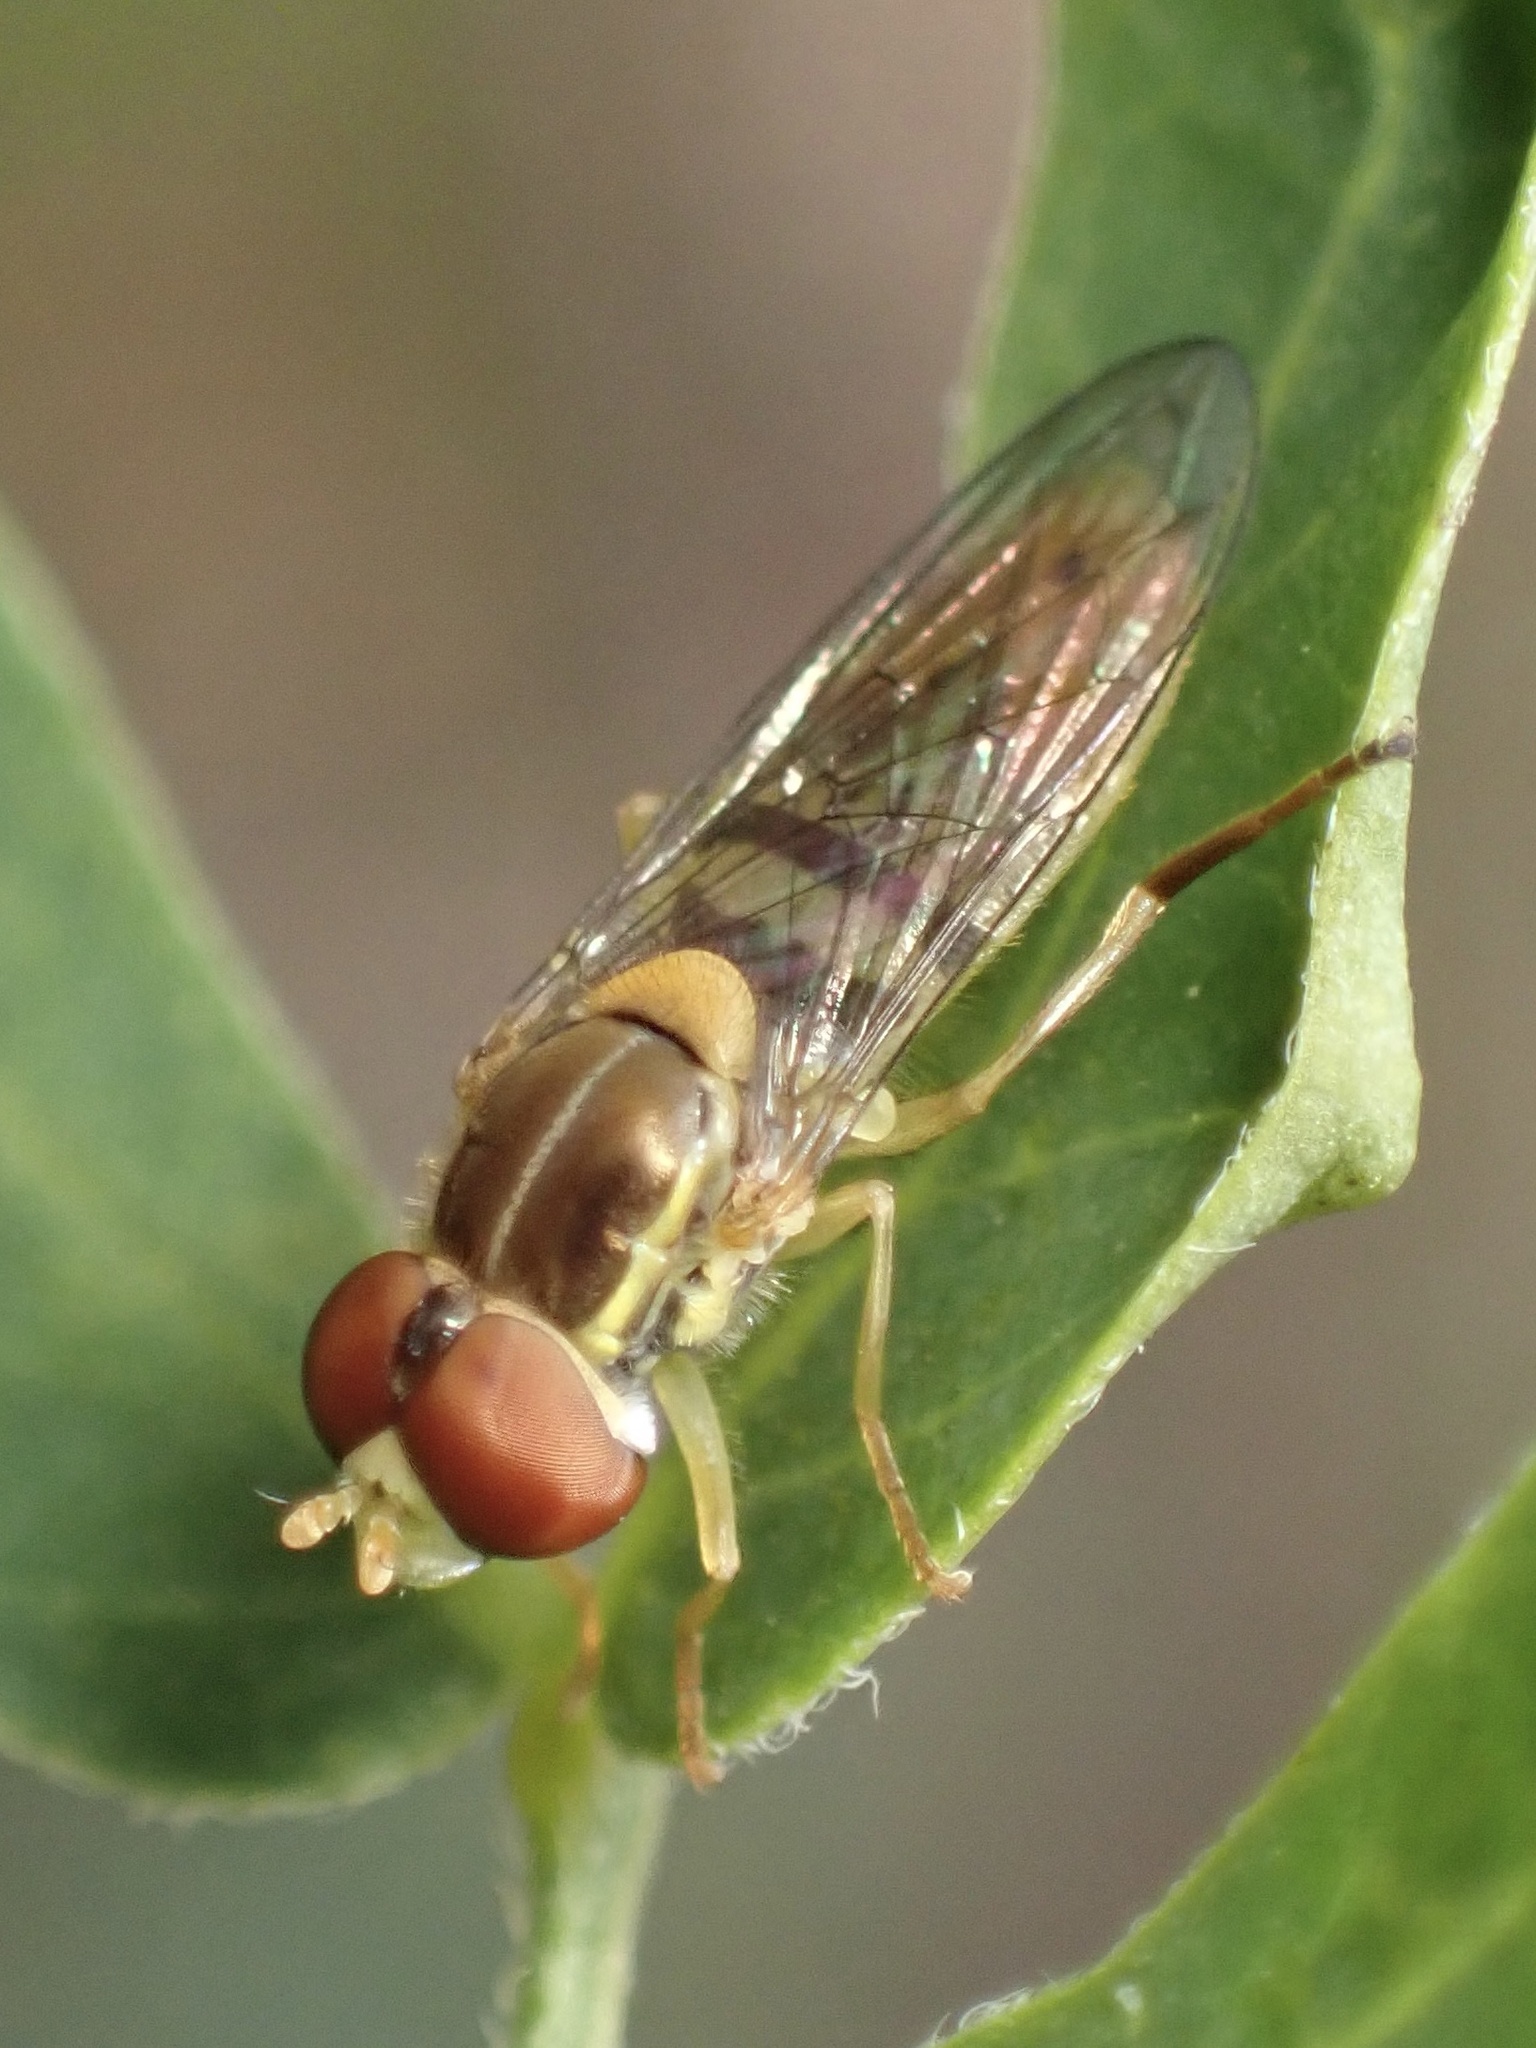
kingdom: Animalia
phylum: Arthropoda
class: Insecta
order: Diptera
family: Syrphidae
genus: Toxomerus
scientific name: Toxomerus marginatus
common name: Syrphid fly
